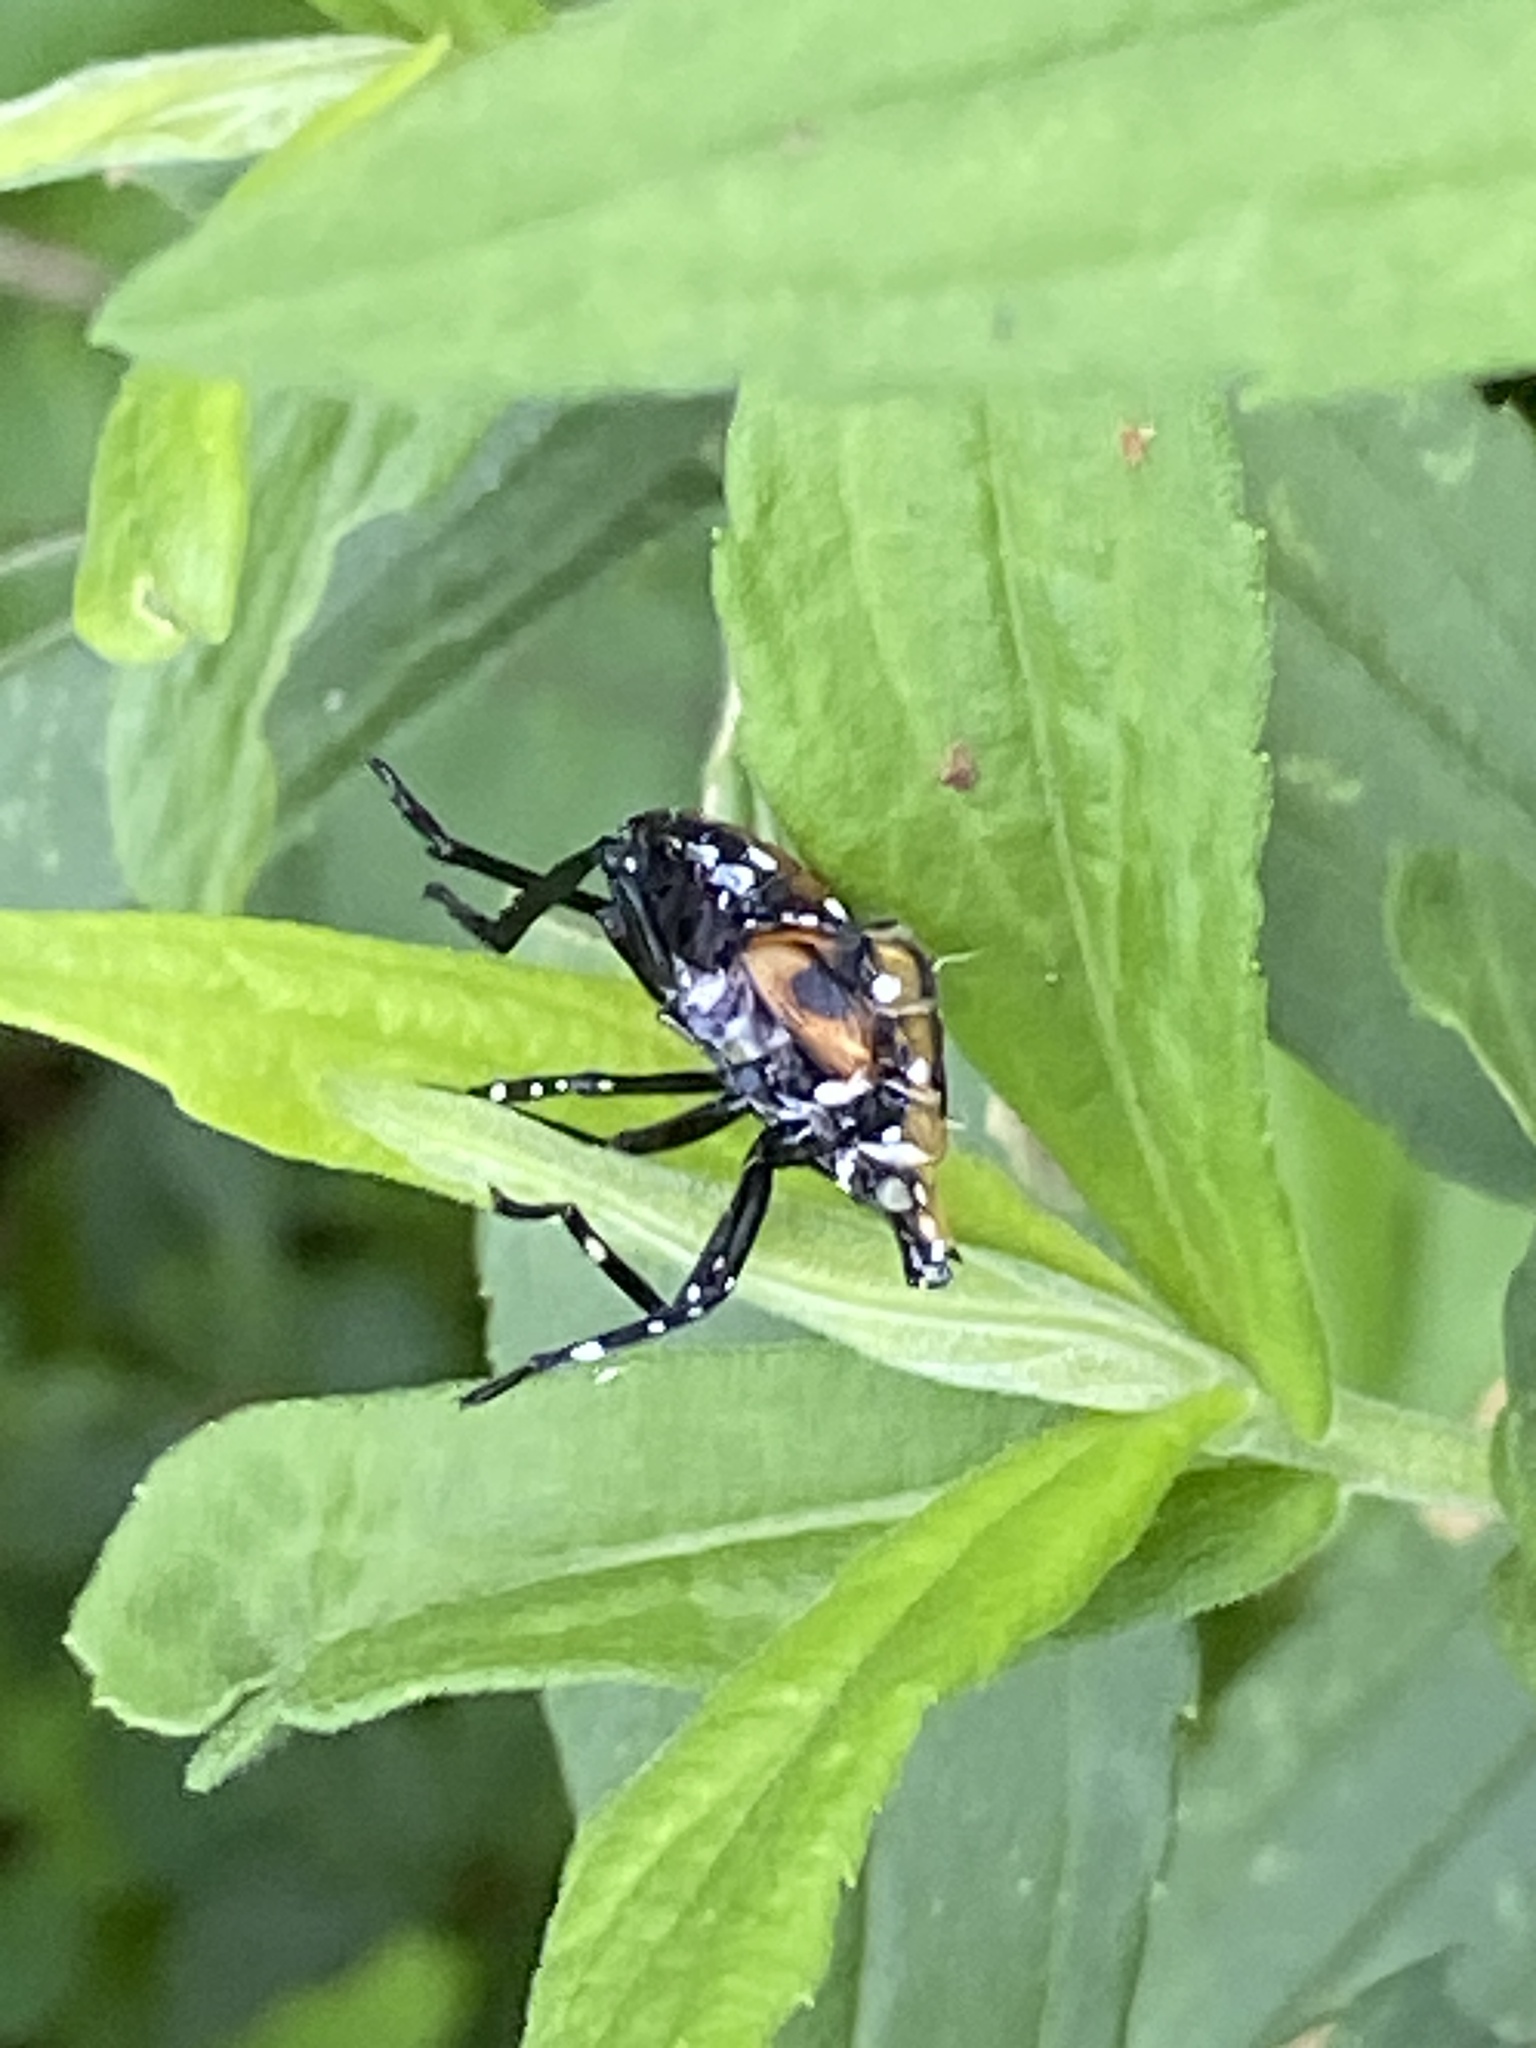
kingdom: Animalia
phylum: Arthropoda
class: Insecta
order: Hemiptera
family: Fulgoridae
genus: Lycorma
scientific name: Lycorma delicatula
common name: Spotted lanternfly
